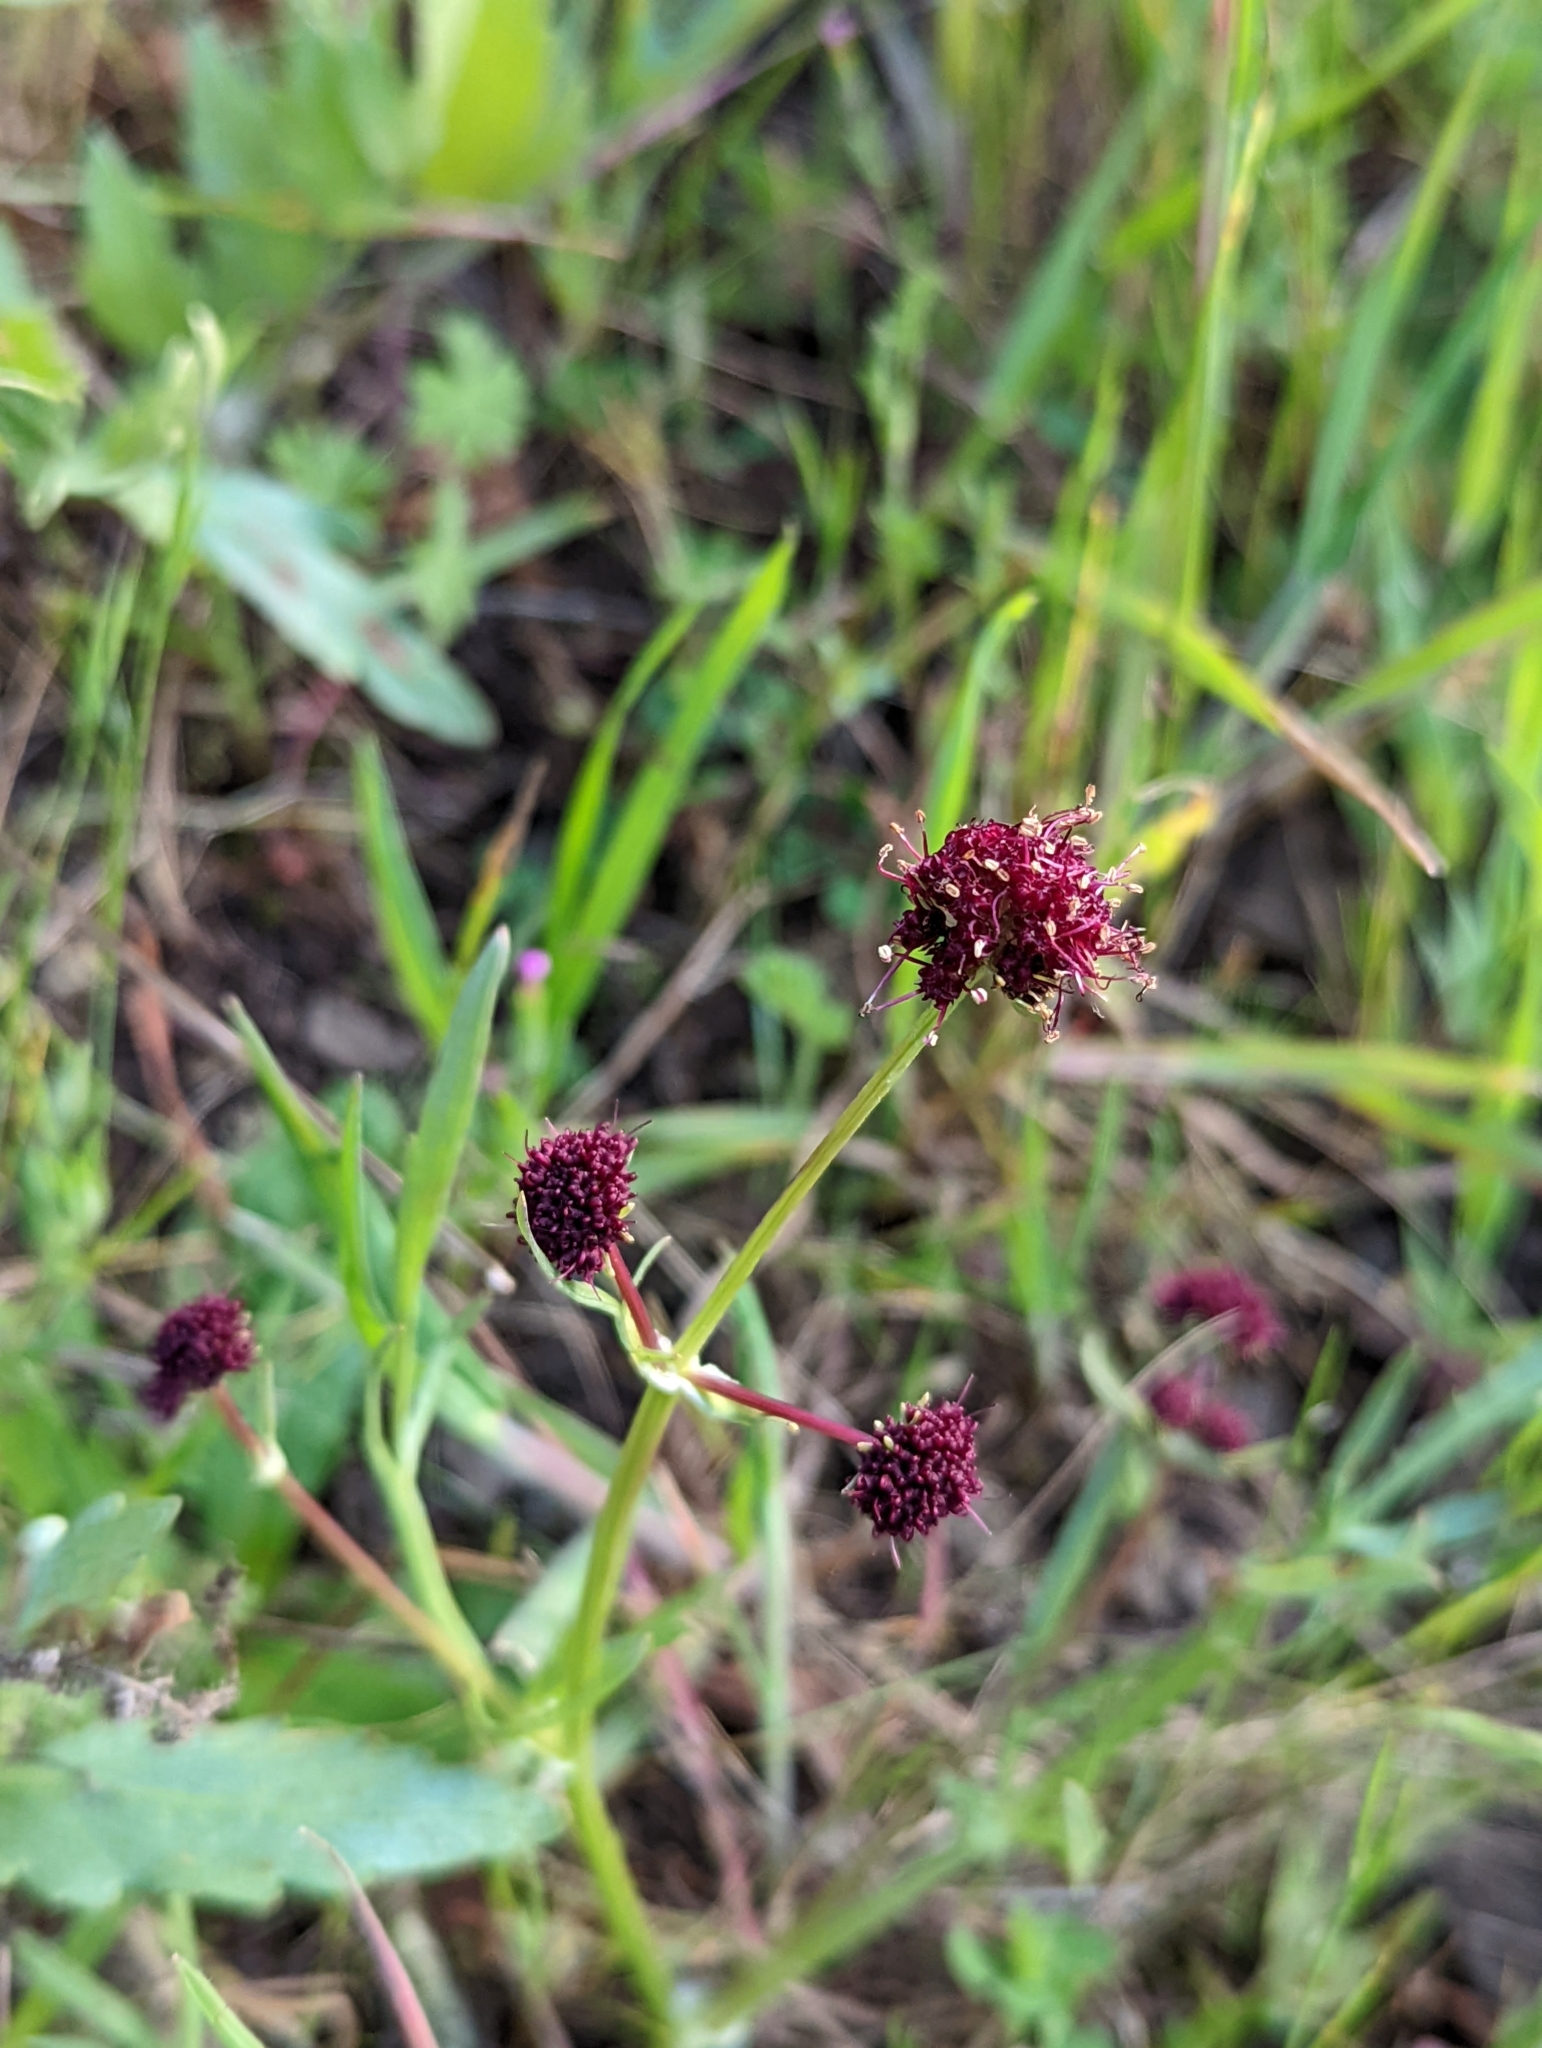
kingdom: Plantae
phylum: Tracheophyta
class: Magnoliopsida
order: Apiales
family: Apiaceae
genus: Sanicula
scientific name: Sanicula bipinnatifida
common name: Shoe-buttons
